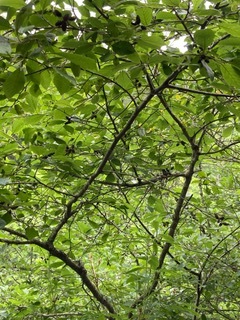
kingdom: Plantae
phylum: Tracheophyta
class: Magnoliopsida
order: Fagales
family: Betulaceae
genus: Alnus
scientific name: Alnus serrulata
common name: Hazel alder
